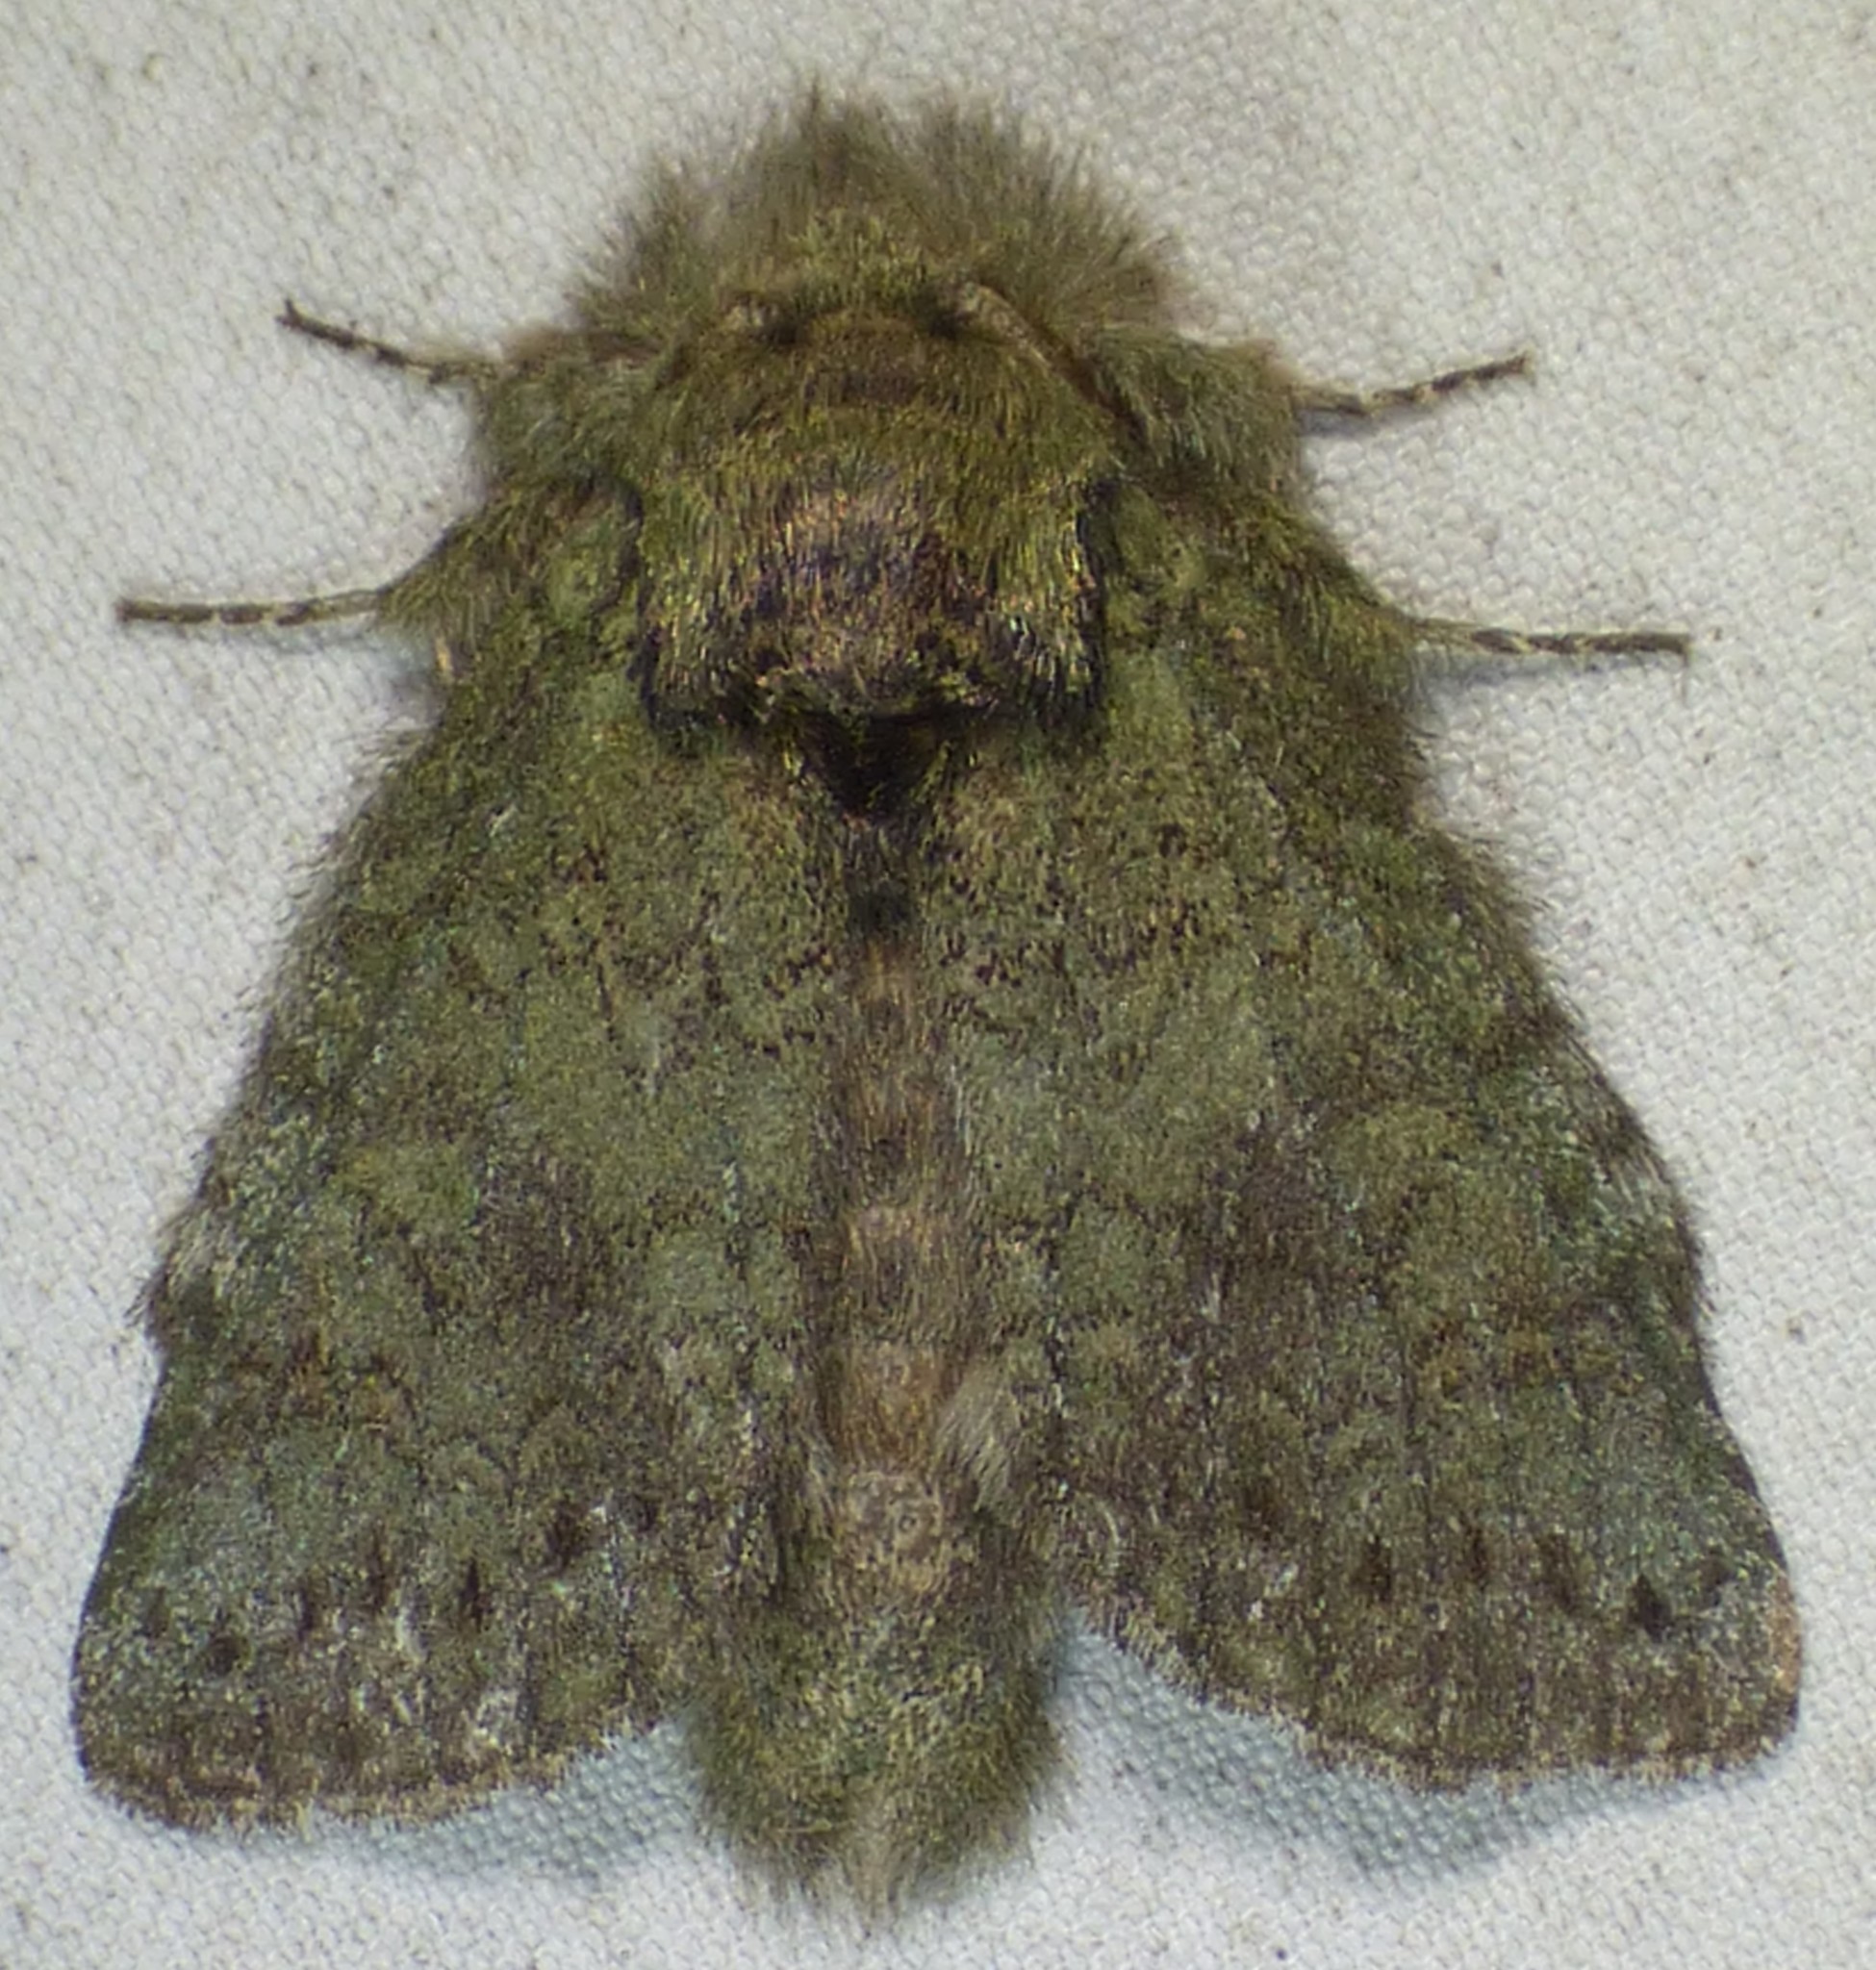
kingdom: Animalia
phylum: Arthropoda
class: Insecta
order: Lepidoptera
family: Notodontidae
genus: Disphragis
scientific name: Disphragis Cecrita guttivitta
